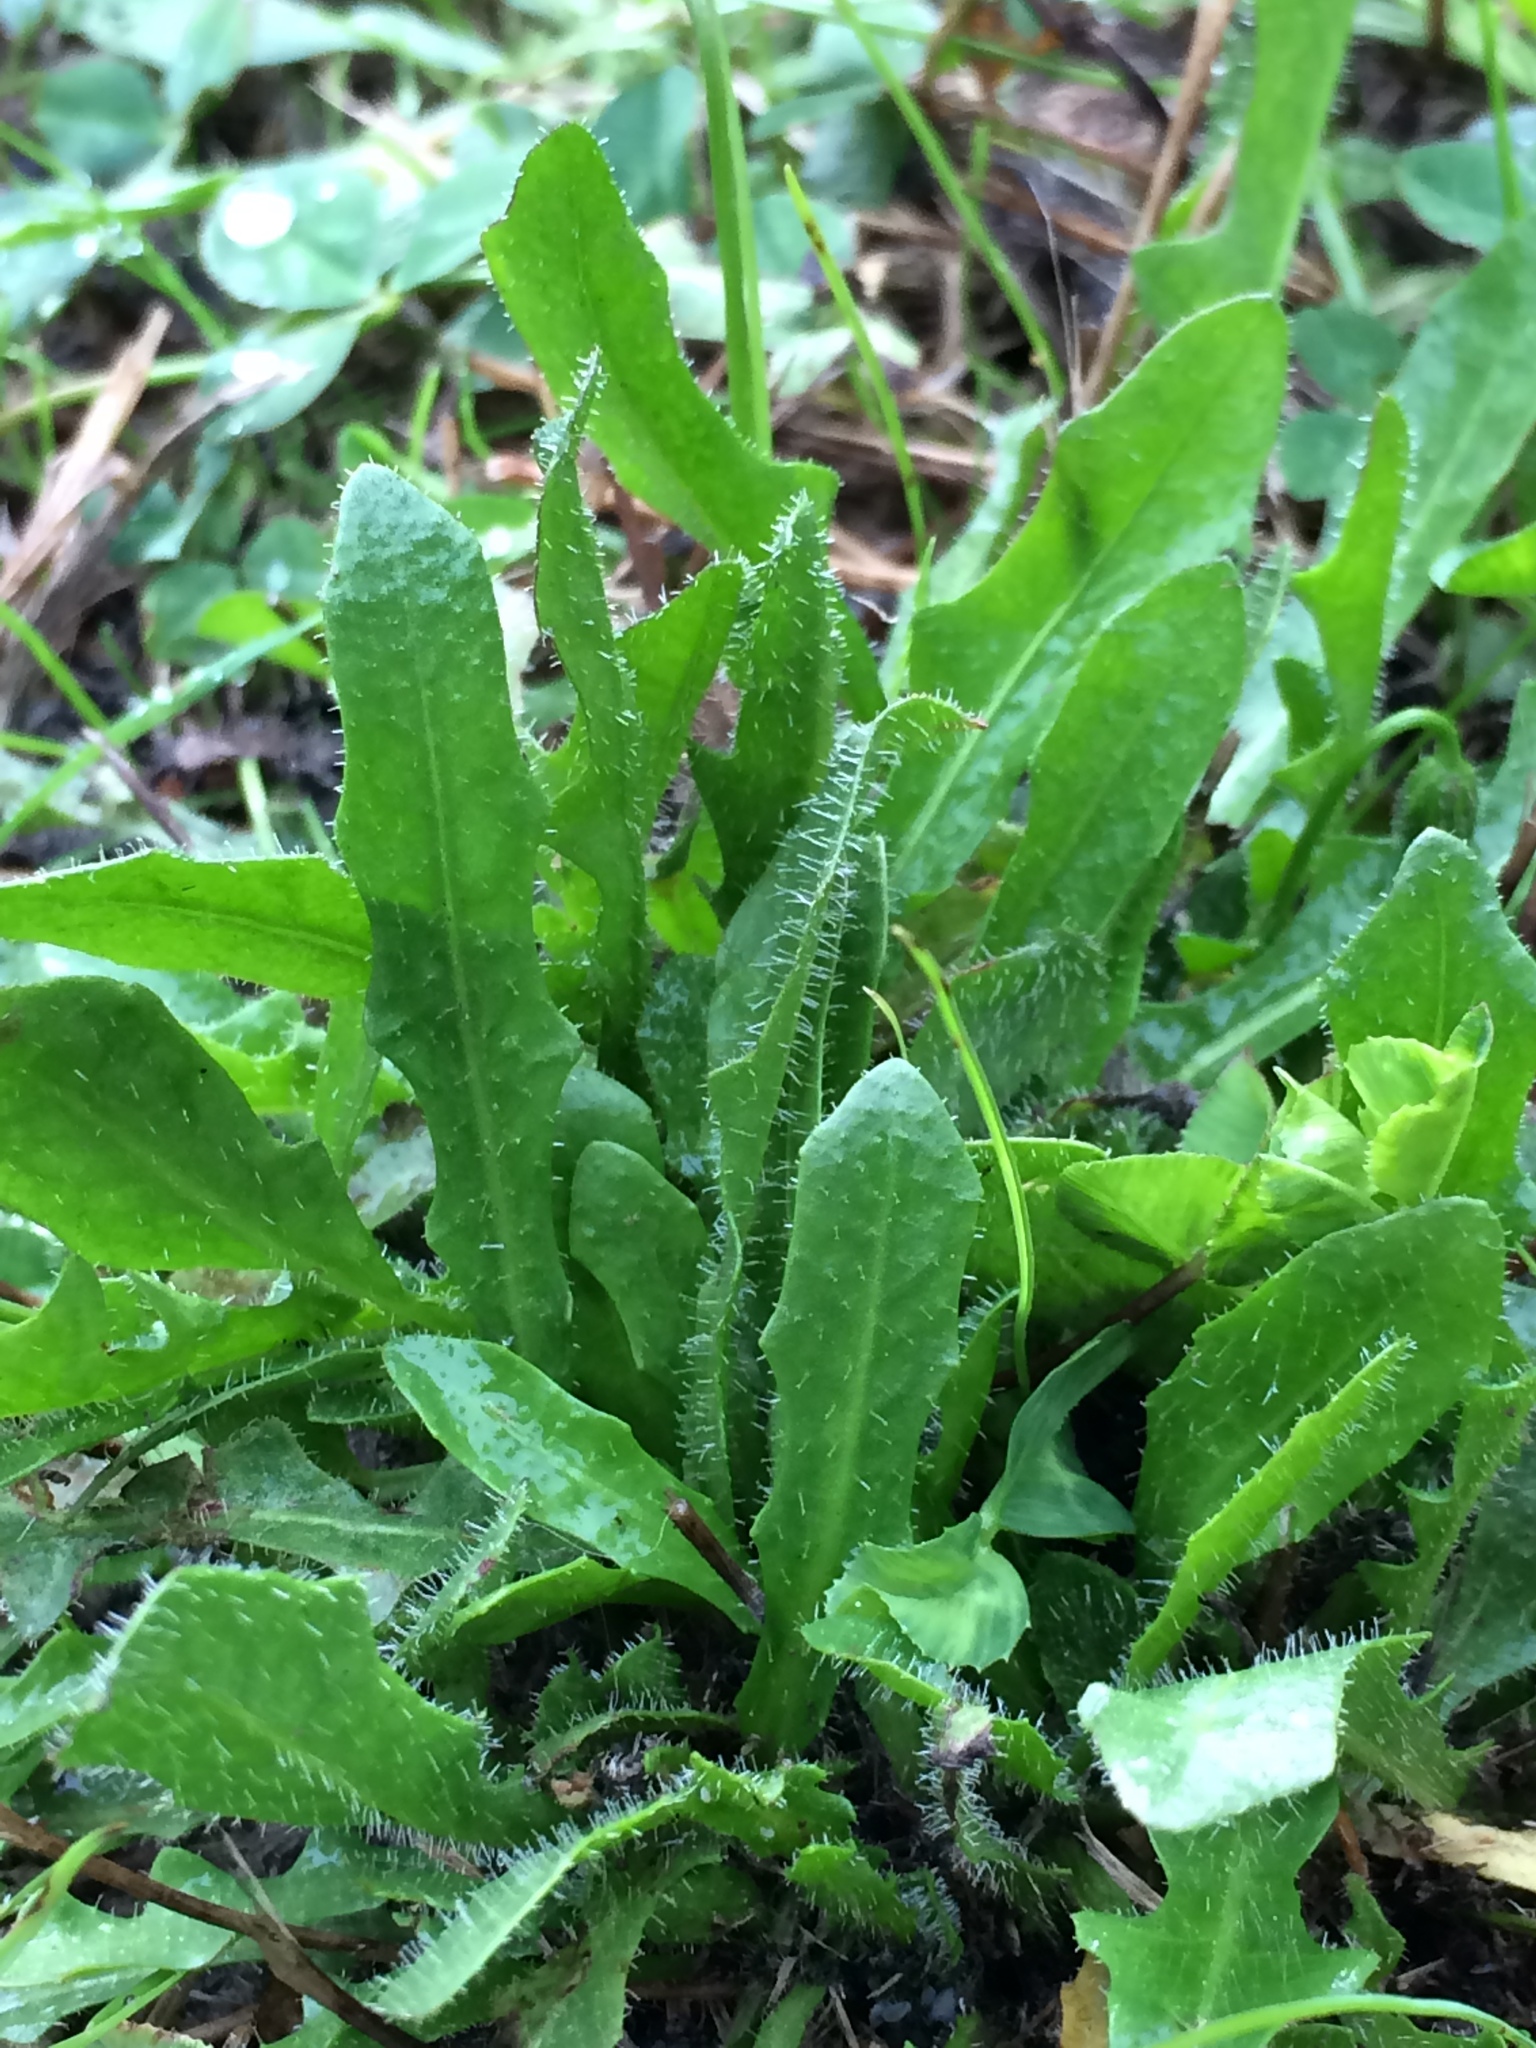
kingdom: Plantae
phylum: Tracheophyta
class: Magnoliopsida
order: Asterales
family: Asteraceae
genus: Hypochaeris
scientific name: Hypochaeris radicata
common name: Flatweed
